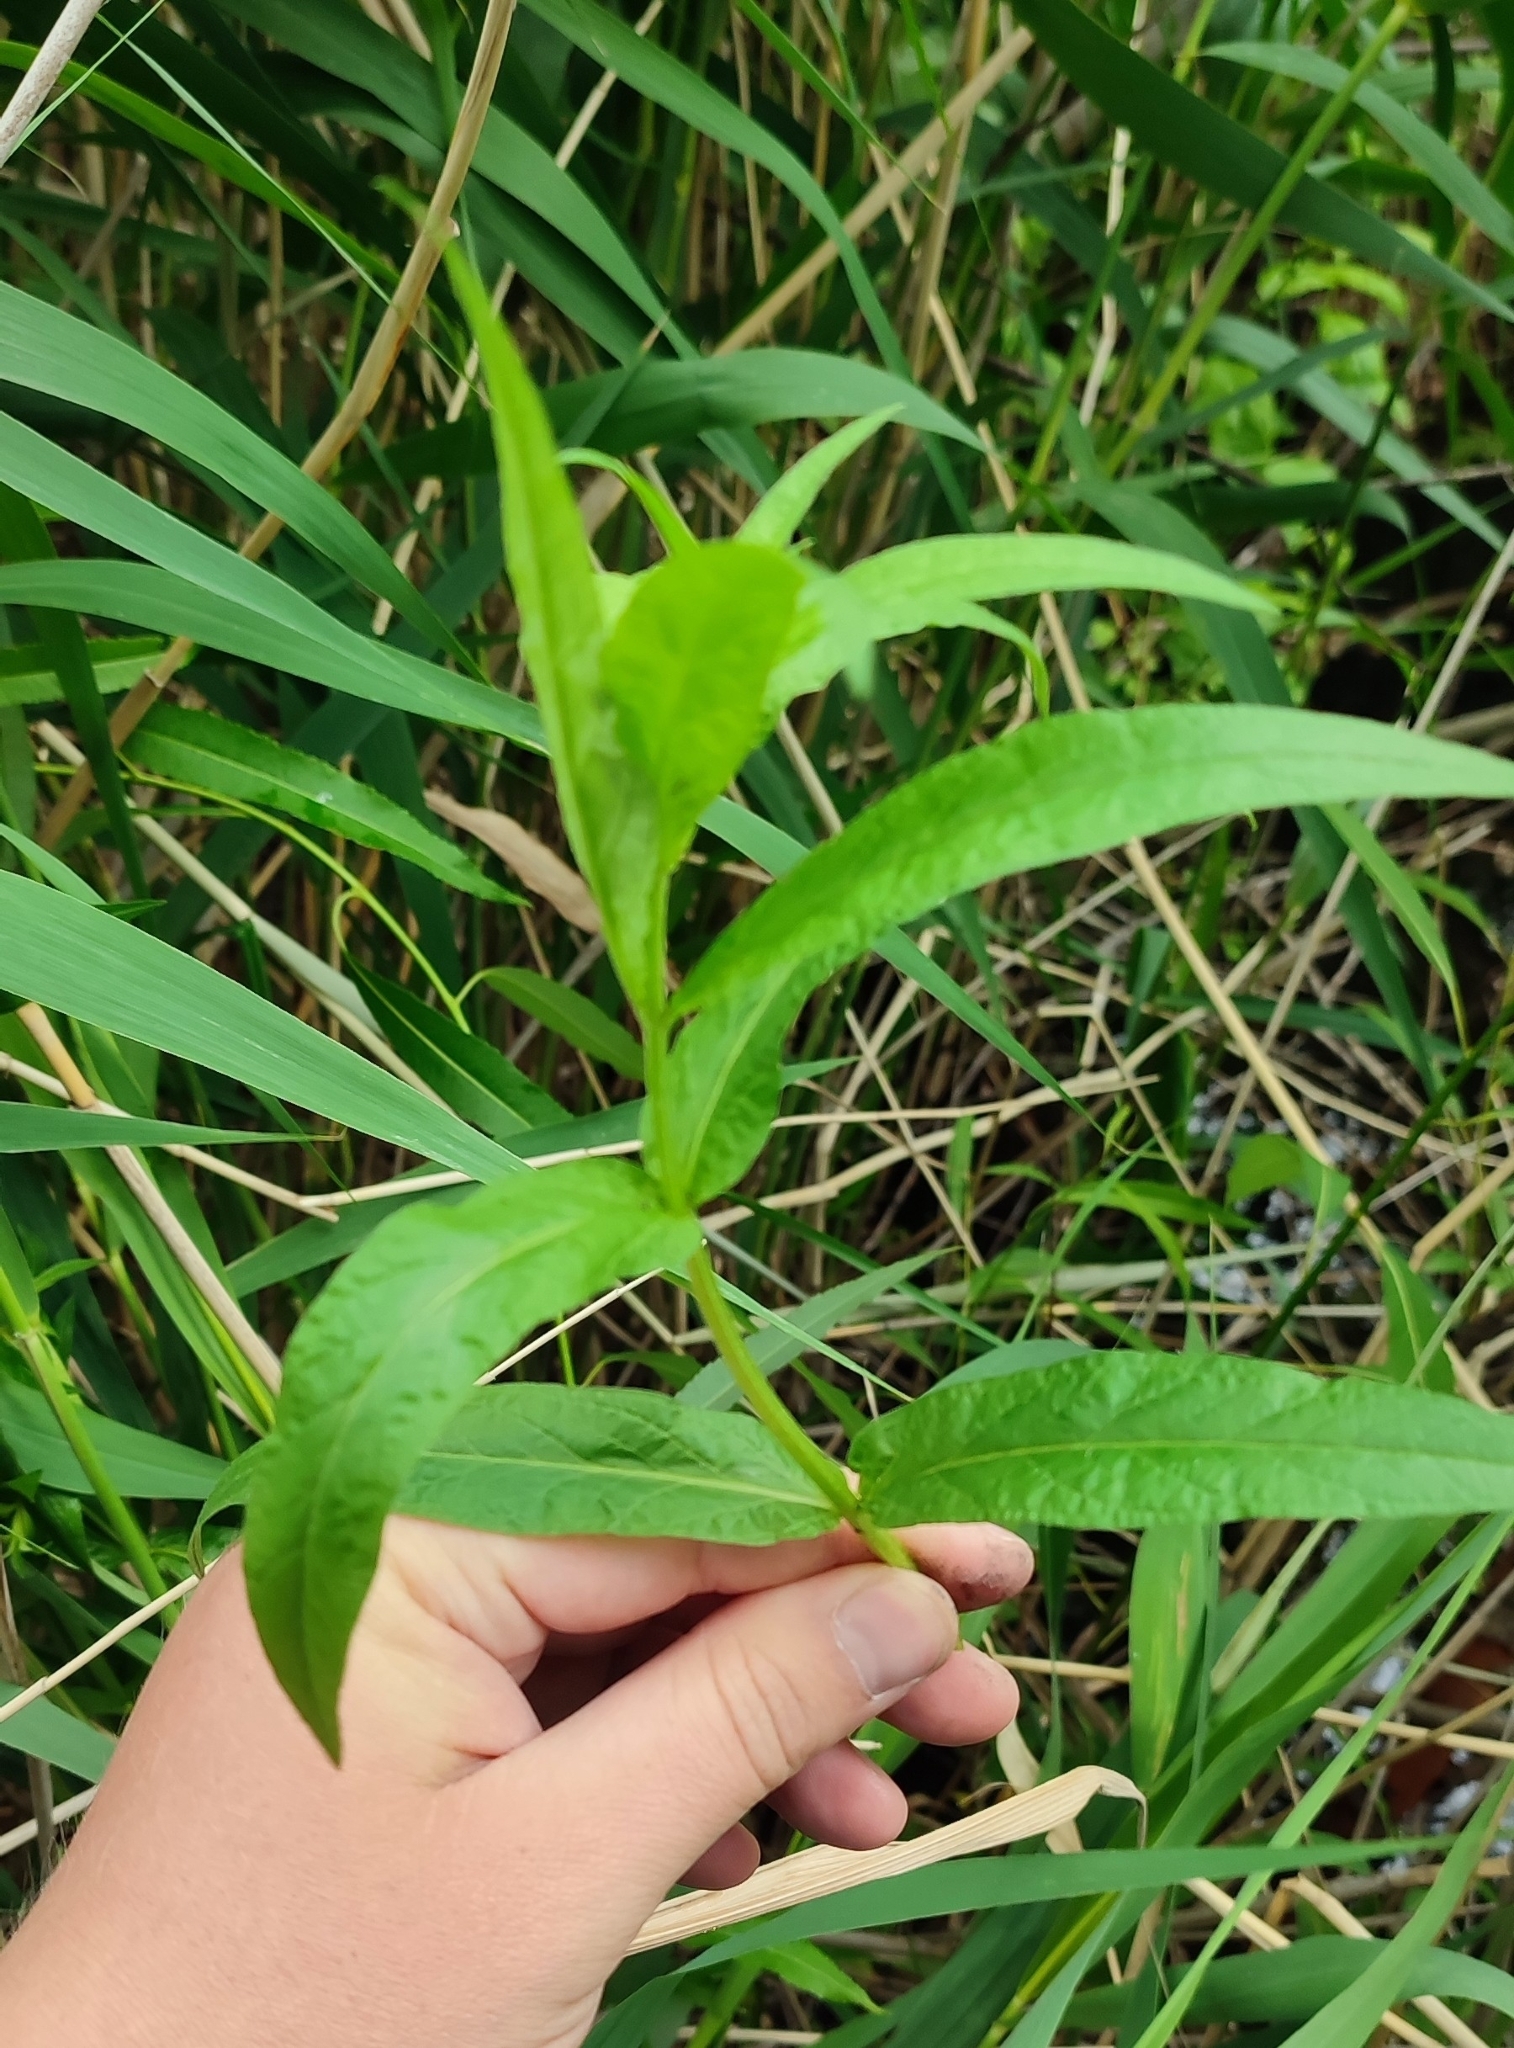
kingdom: Plantae
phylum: Tracheophyta
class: Magnoliopsida
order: Ericales
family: Primulaceae
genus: Lysimachia
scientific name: Lysimachia vulgaris
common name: Yellow loosestrife
